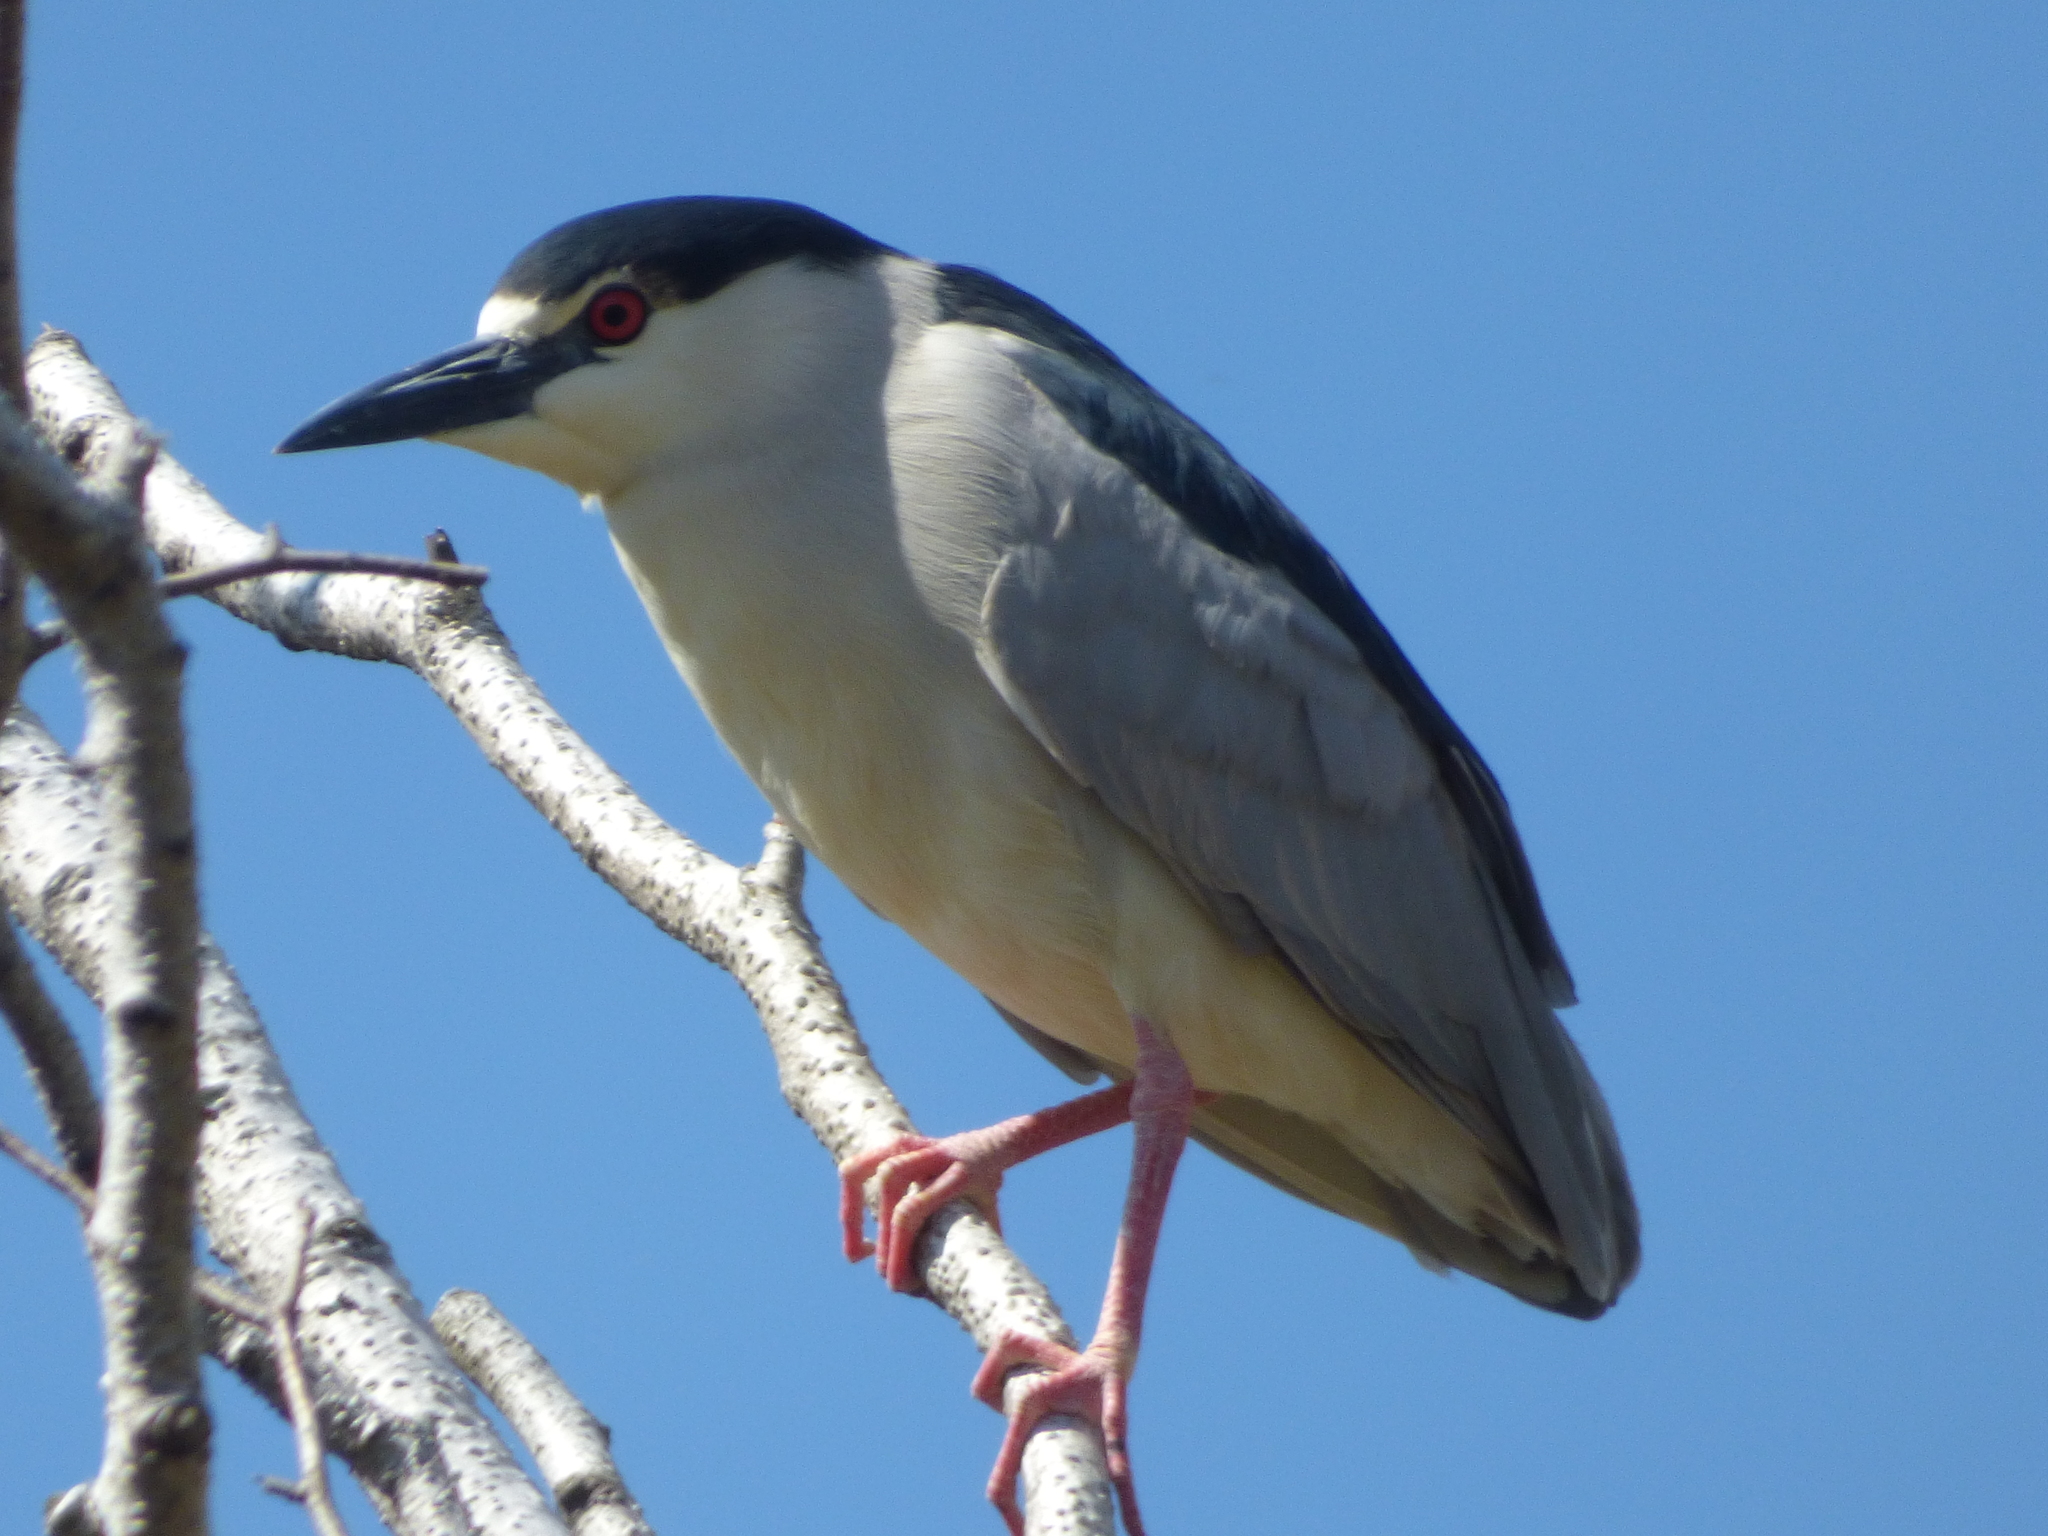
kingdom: Animalia
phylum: Chordata
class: Aves
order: Pelecaniformes
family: Ardeidae
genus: Nycticorax
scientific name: Nycticorax nycticorax
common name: Black-crowned night heron
